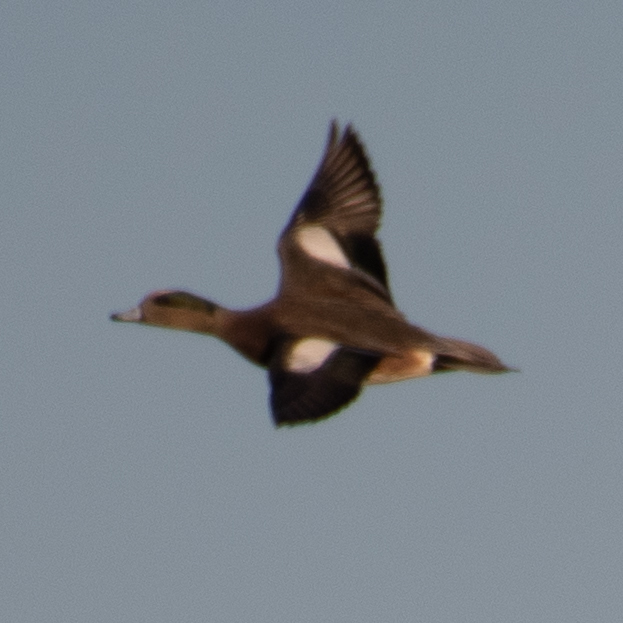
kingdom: Animalia
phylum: Chordata
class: Aves
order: Anseriformes
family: Anatidae
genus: Mareca
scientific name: Mareca americana
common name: American wigeon
